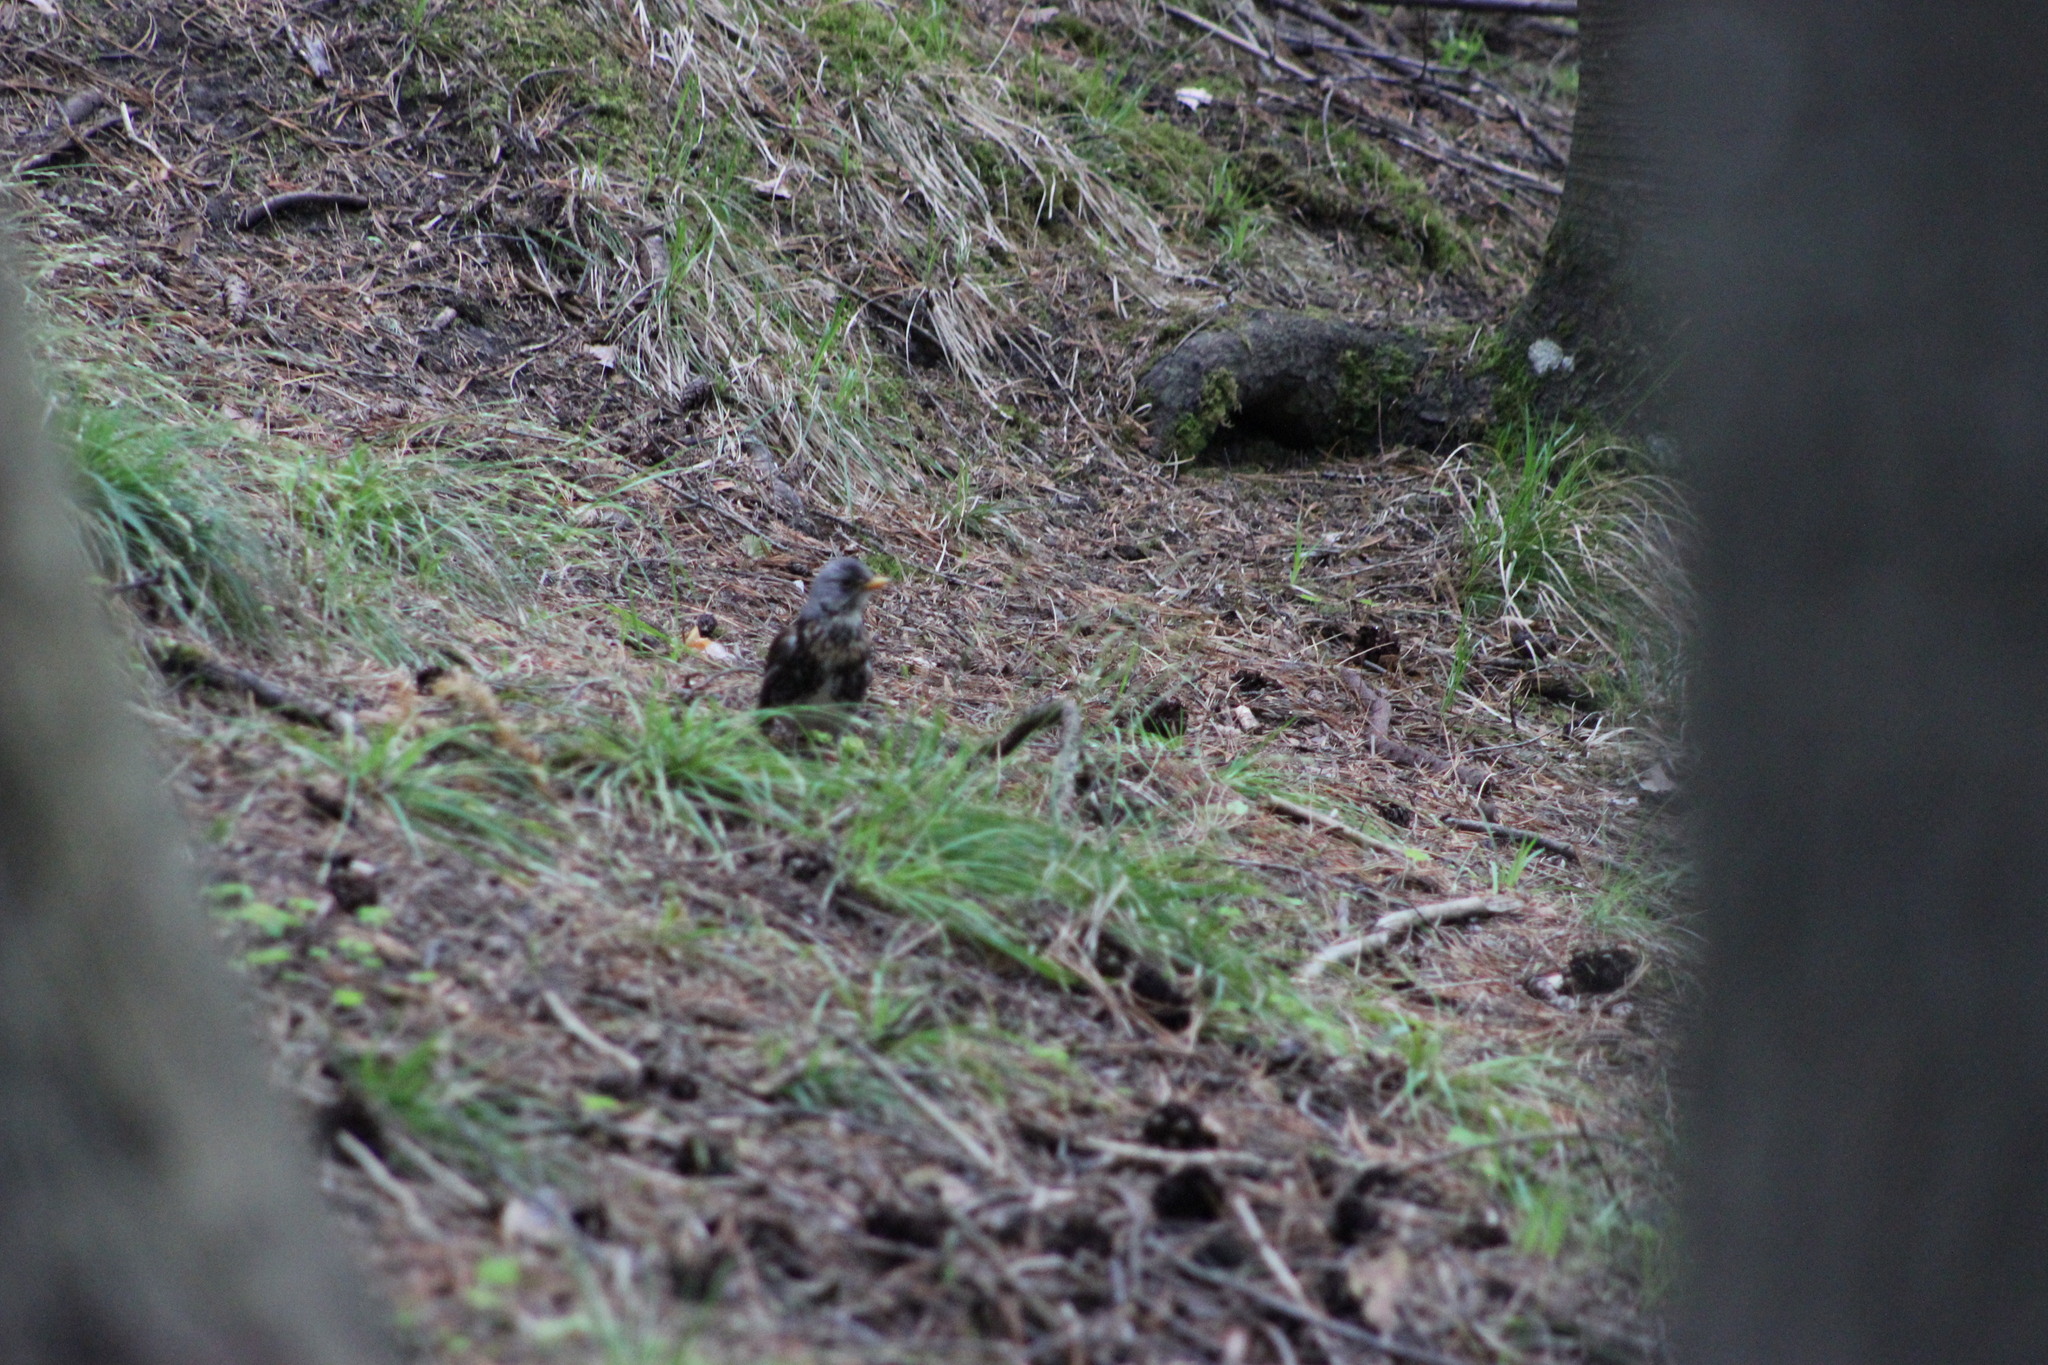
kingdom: Animalia
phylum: Chordata
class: Aves
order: Passeriformes
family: Turdidae
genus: Turdus
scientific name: Turdus pilaris
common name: Fieldfare
